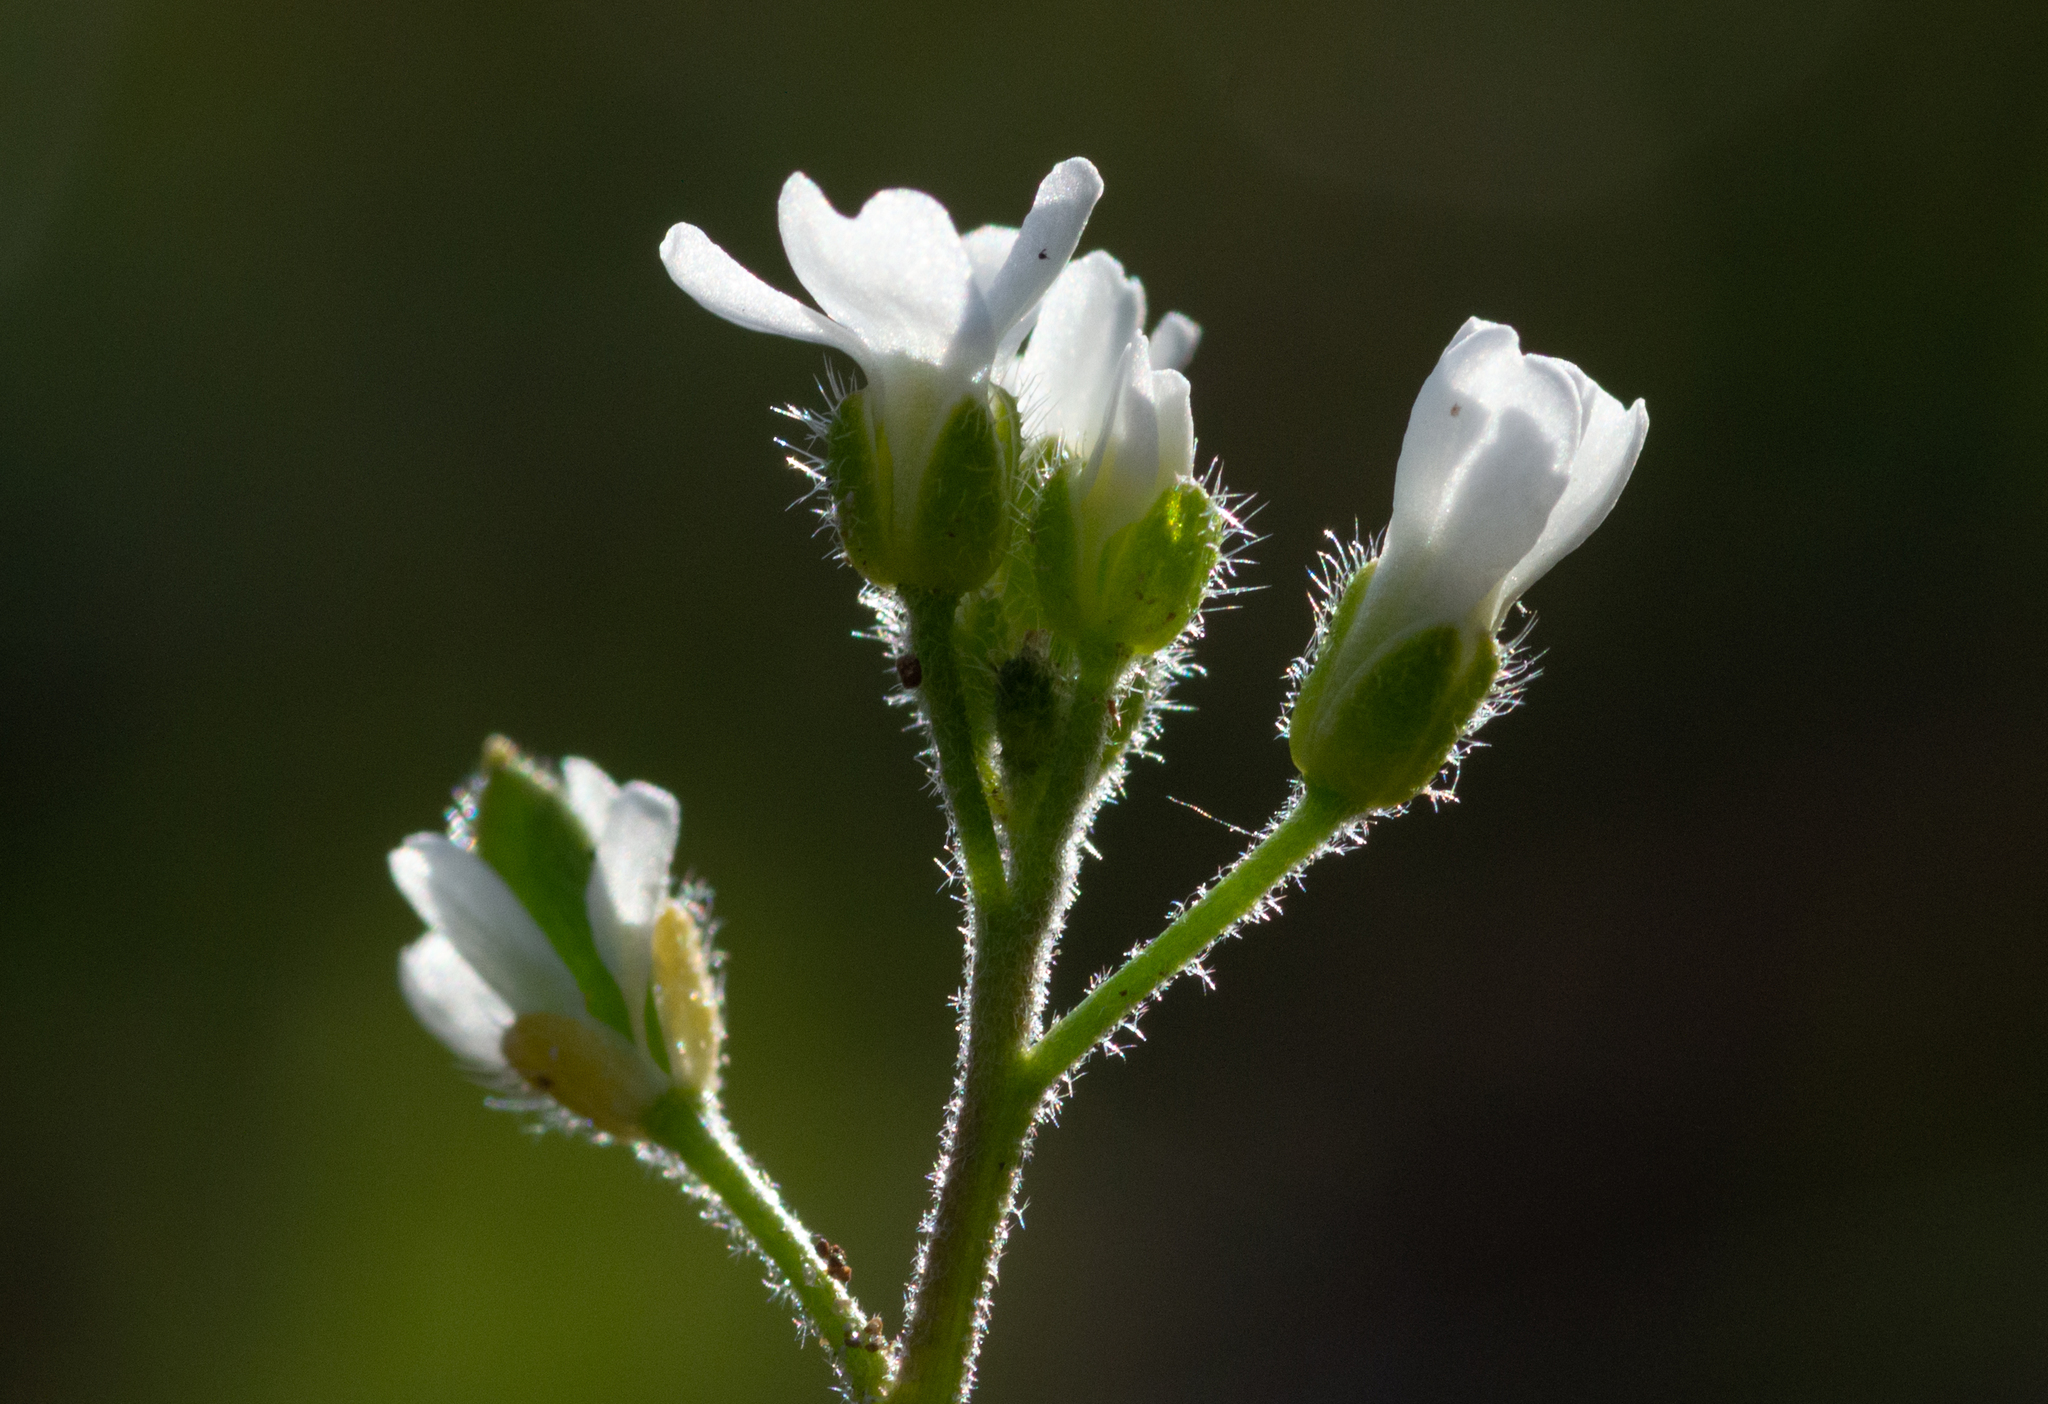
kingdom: Plantae
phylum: Tracheophyta
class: Magnoliopsida
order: Brassicales
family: Brassicaceae
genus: Tomostima
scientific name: Tomostima cuneifolia
